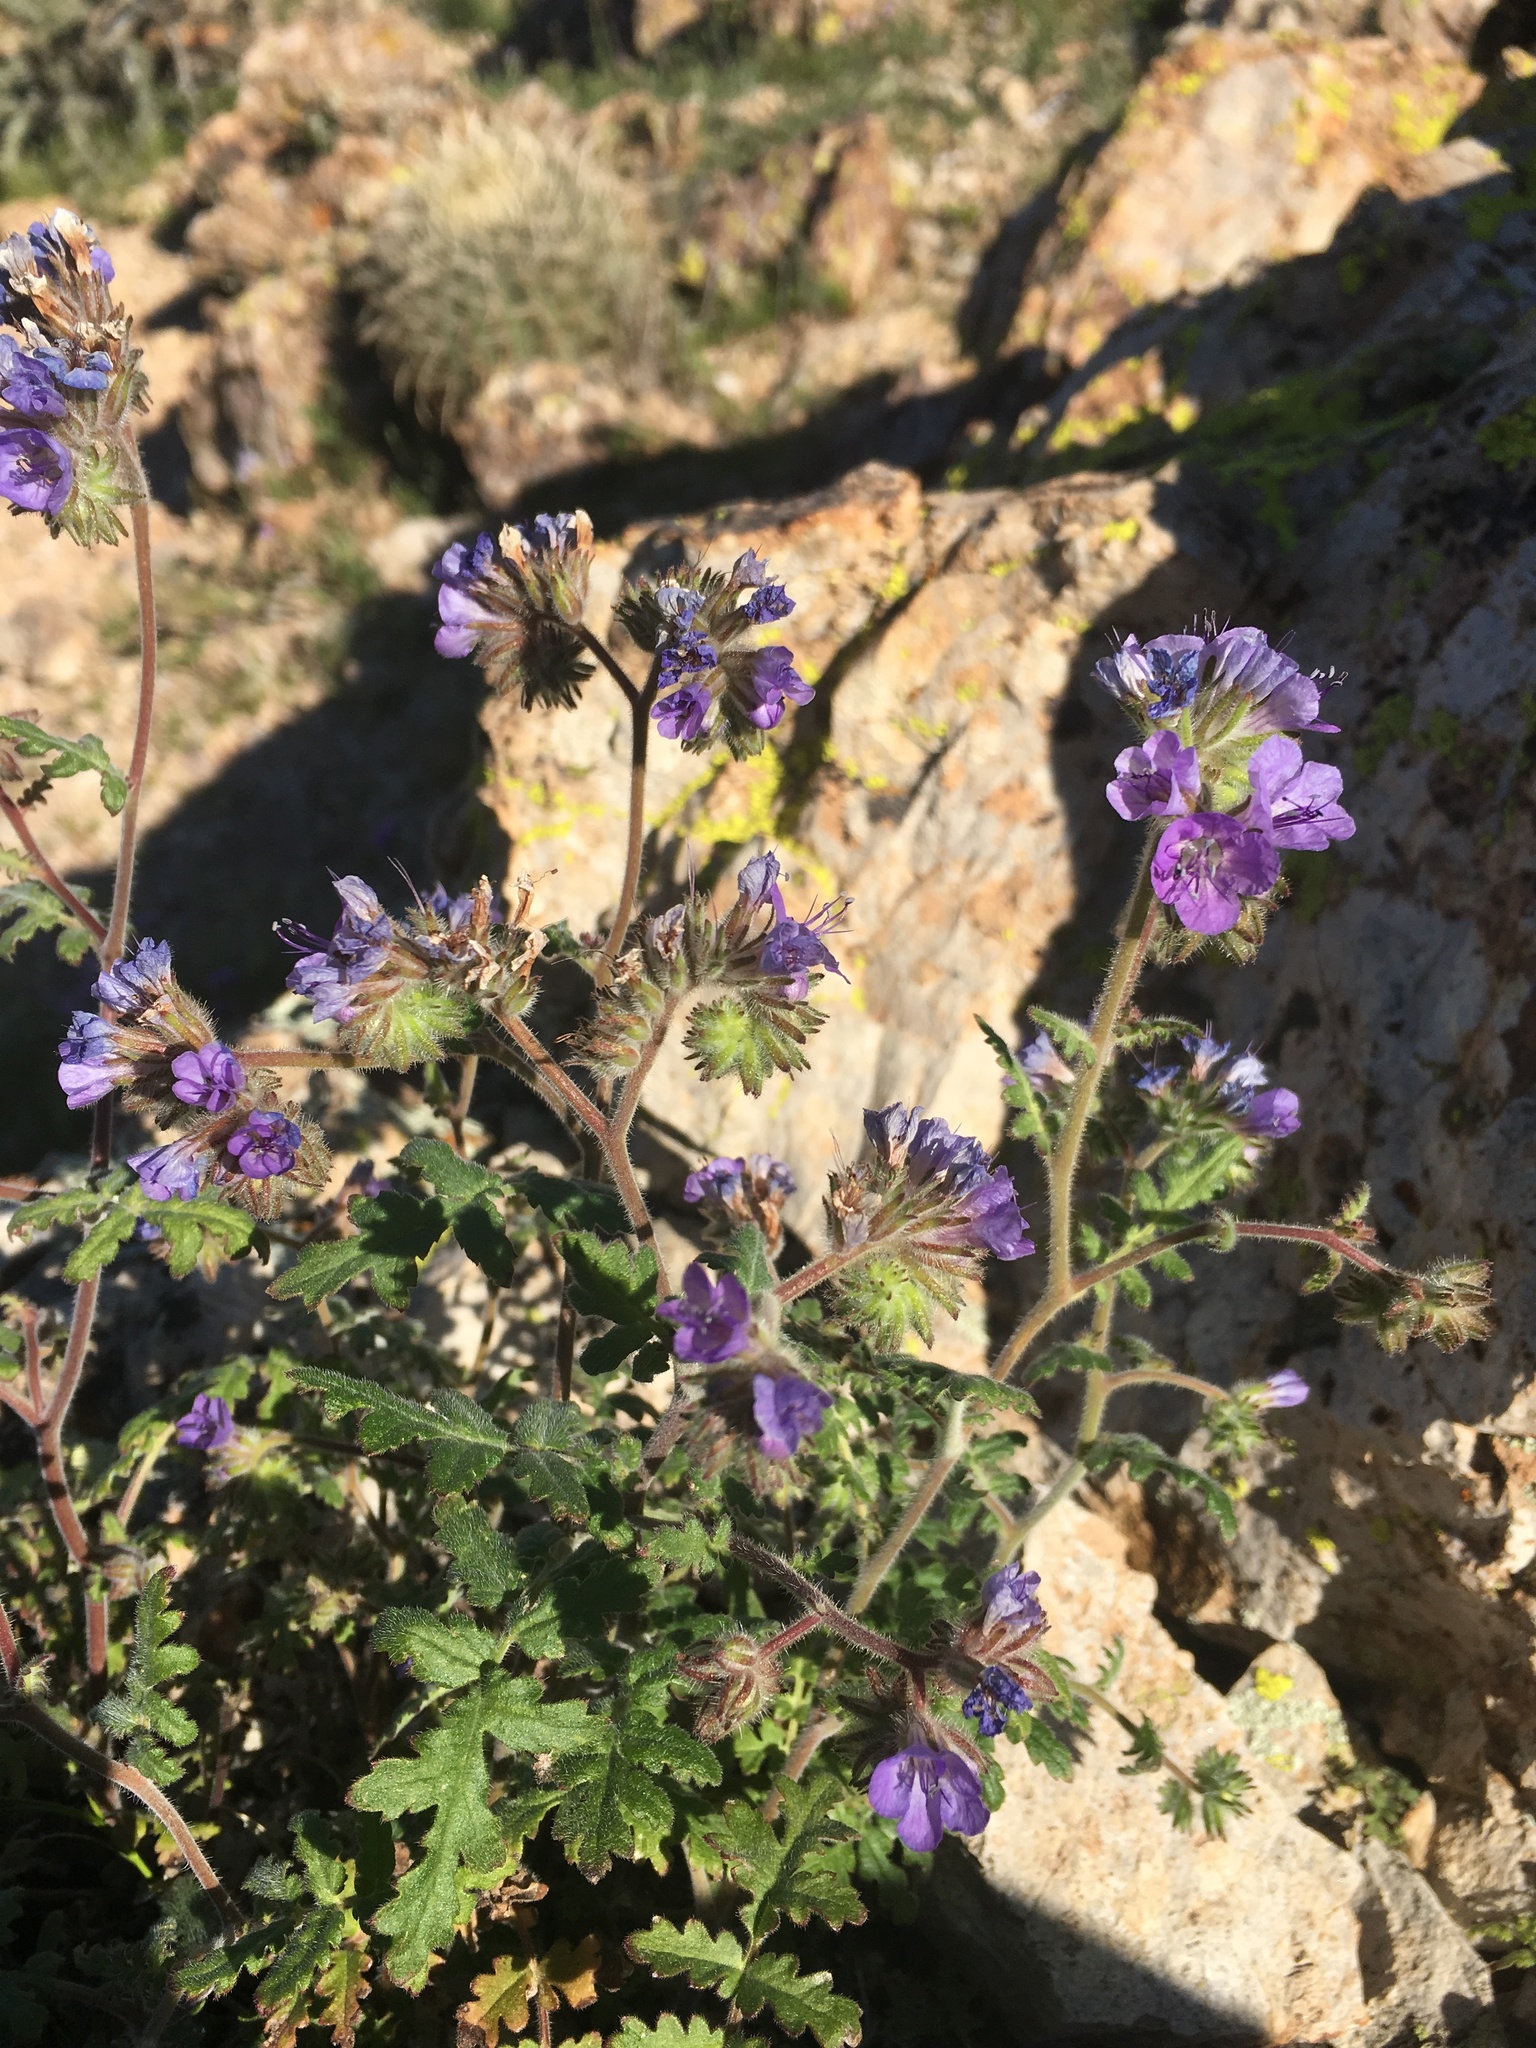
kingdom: Plantae
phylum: Tracheophyta
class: Magnoliopsida
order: Boraginales
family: Hydrophyllaceae
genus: Phacelia
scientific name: Phacelia distans
